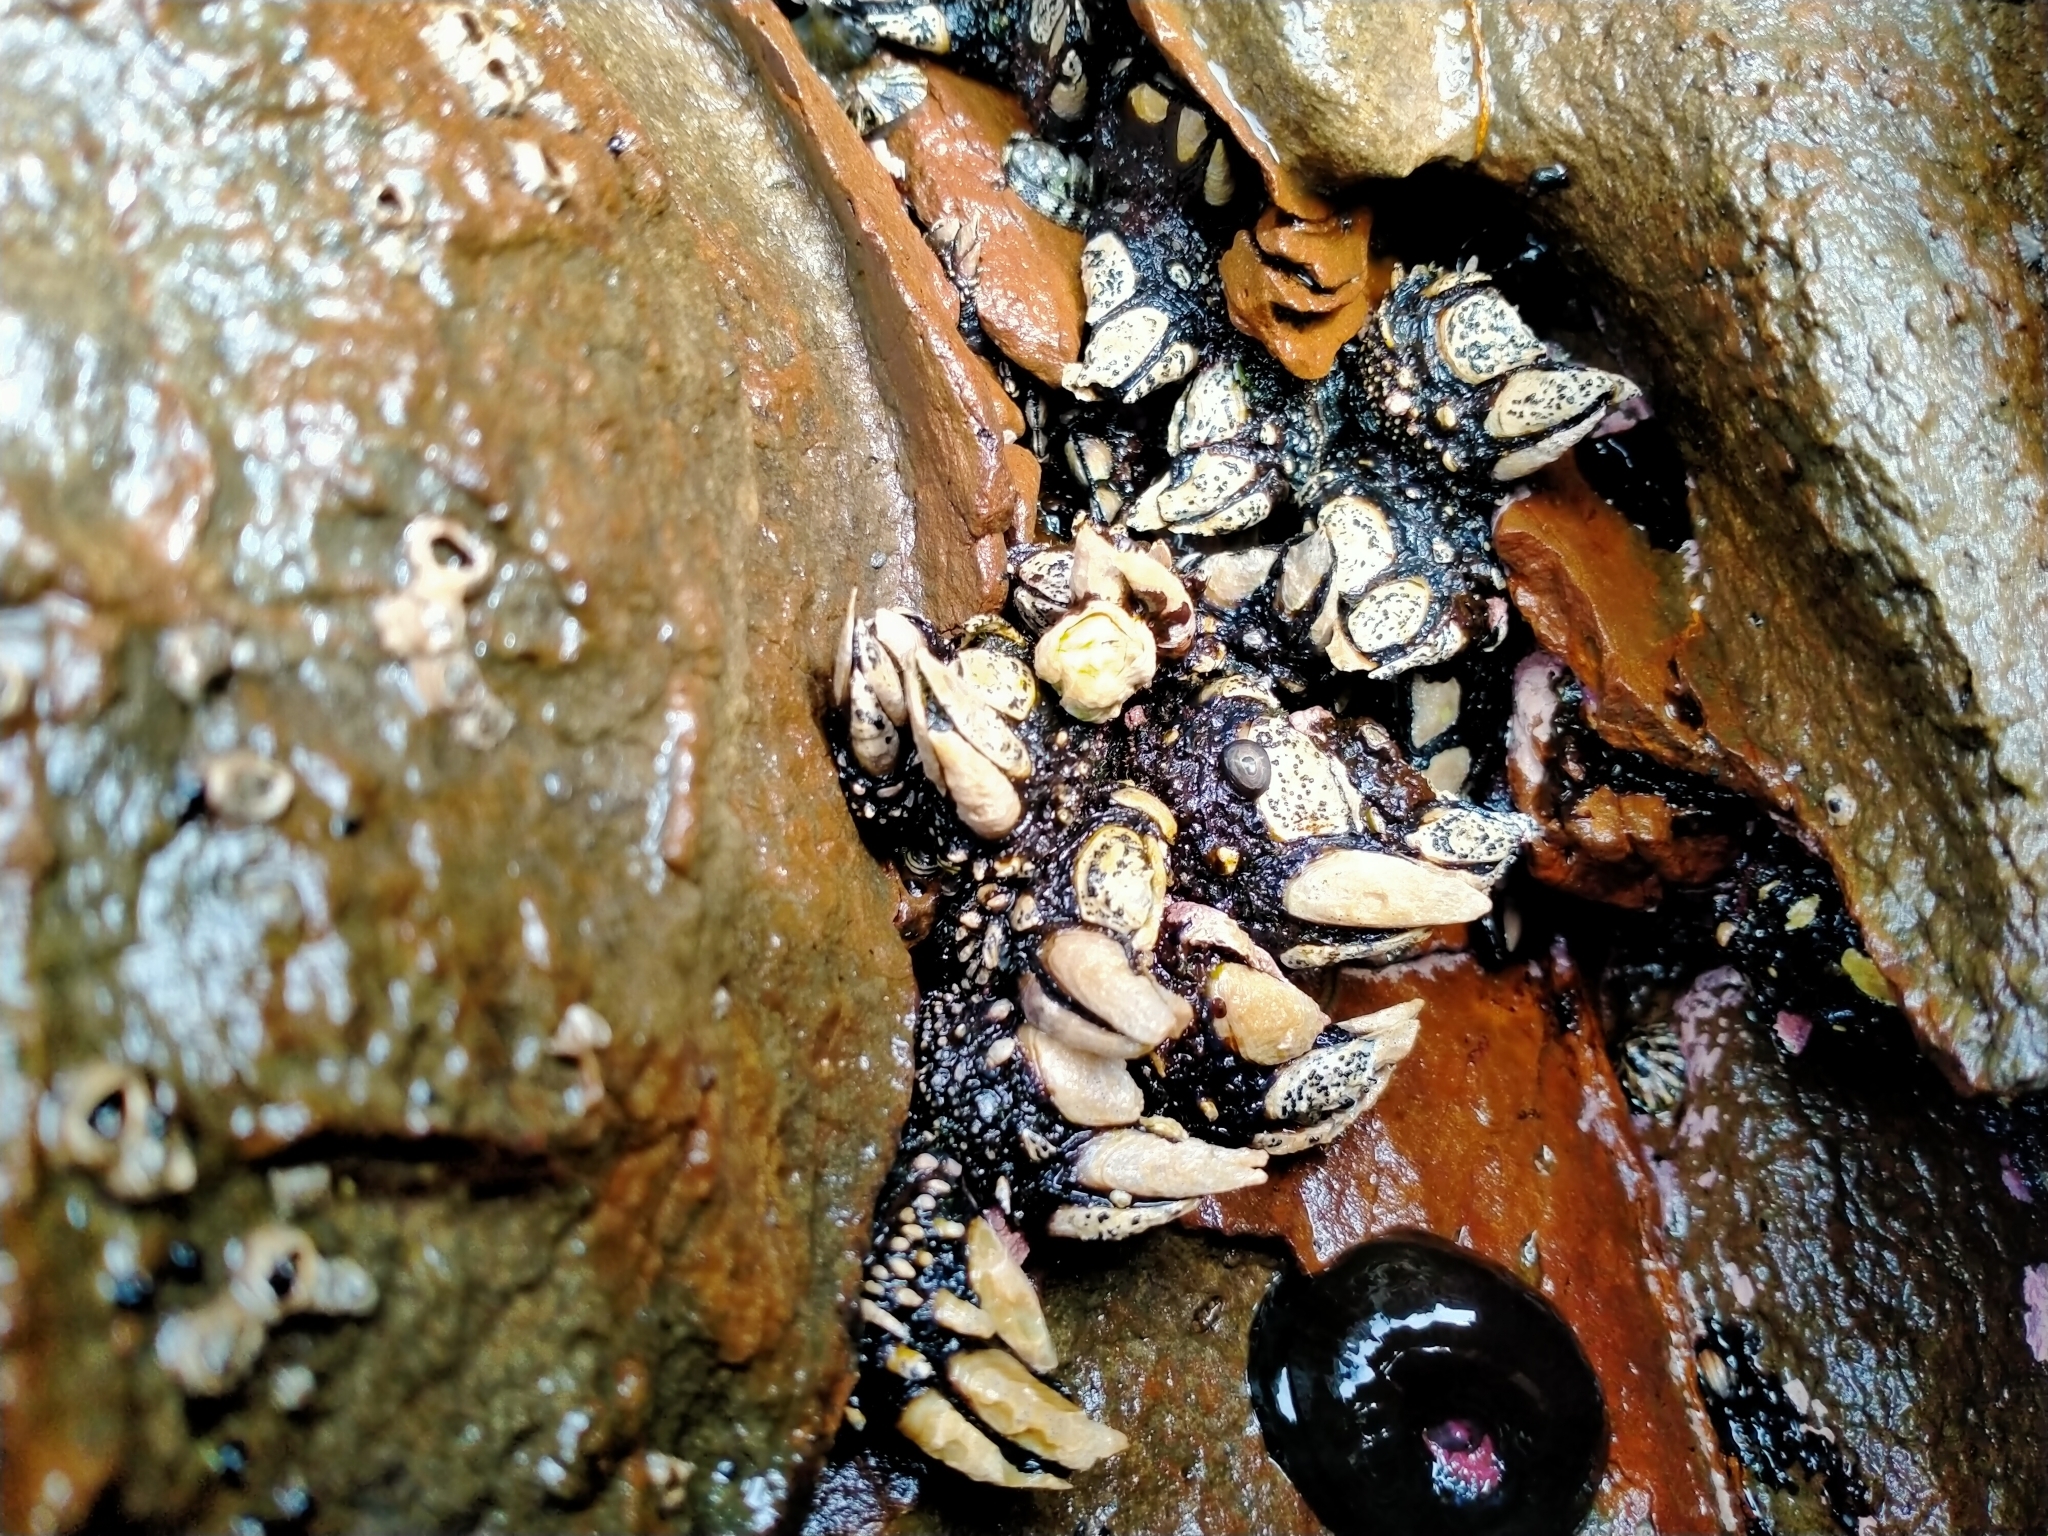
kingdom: Animalia
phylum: Arthropoda
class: Maxillopoda
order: Pedunculata
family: Calanticidae
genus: Calantica
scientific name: Calantica spinosa
